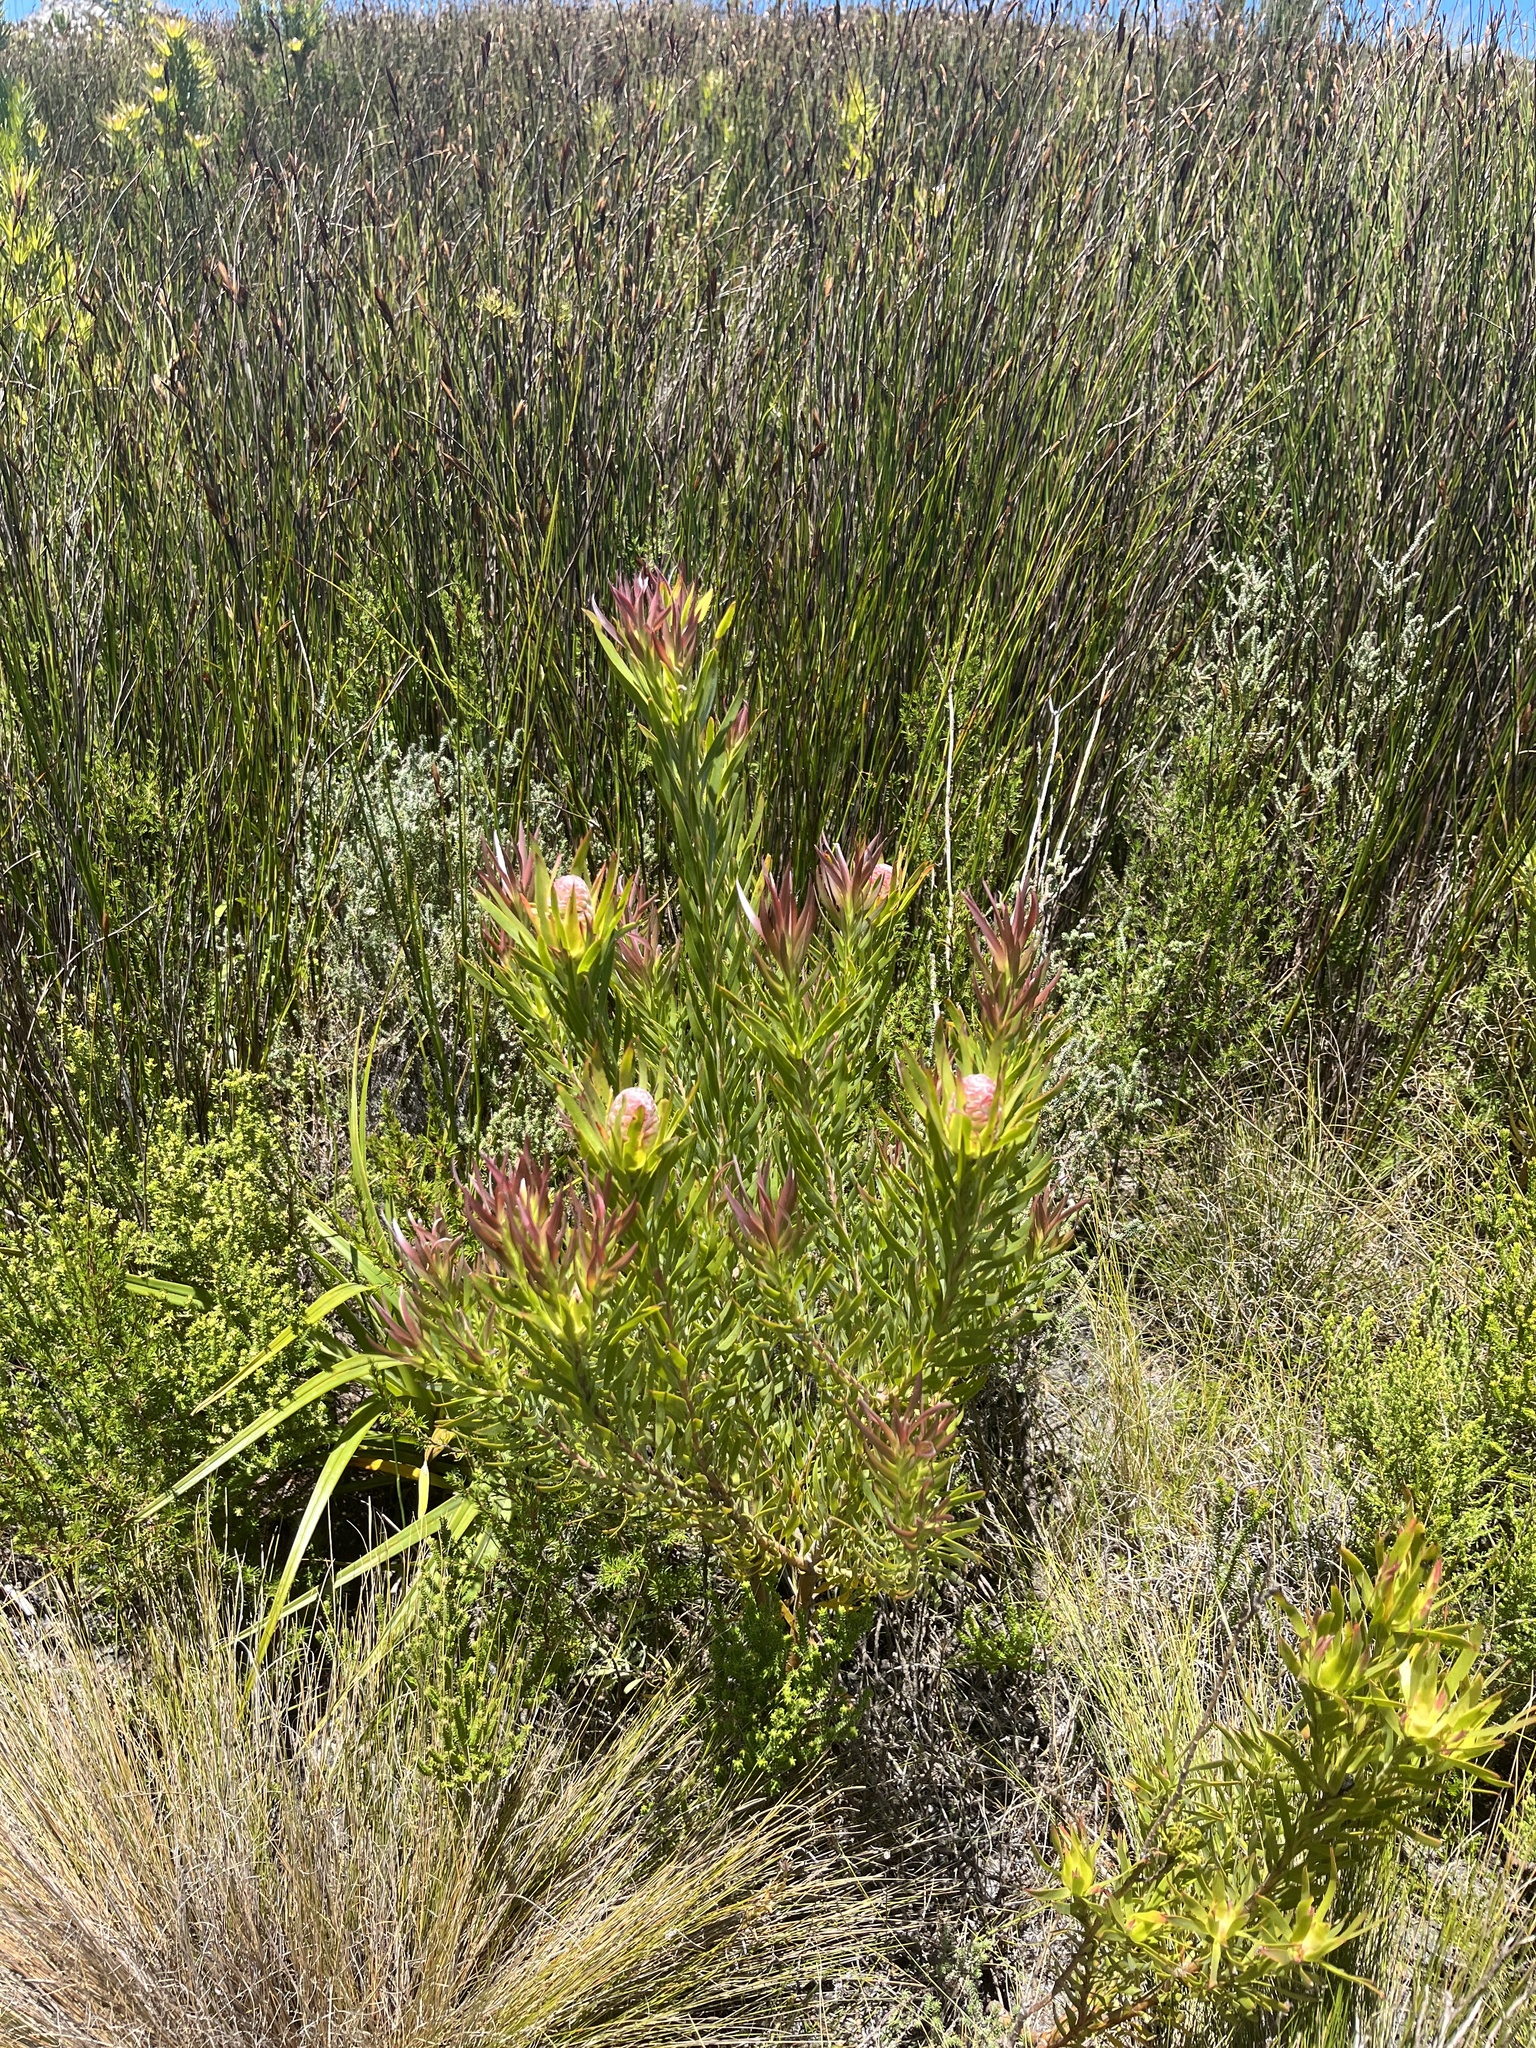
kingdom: Plantae
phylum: Tracheophyta
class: Magnoliopsida
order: Proteales
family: Proteaceae
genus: Leucadendron
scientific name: Leucadendron xanthoconus
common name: Sickle-leaf conebush
